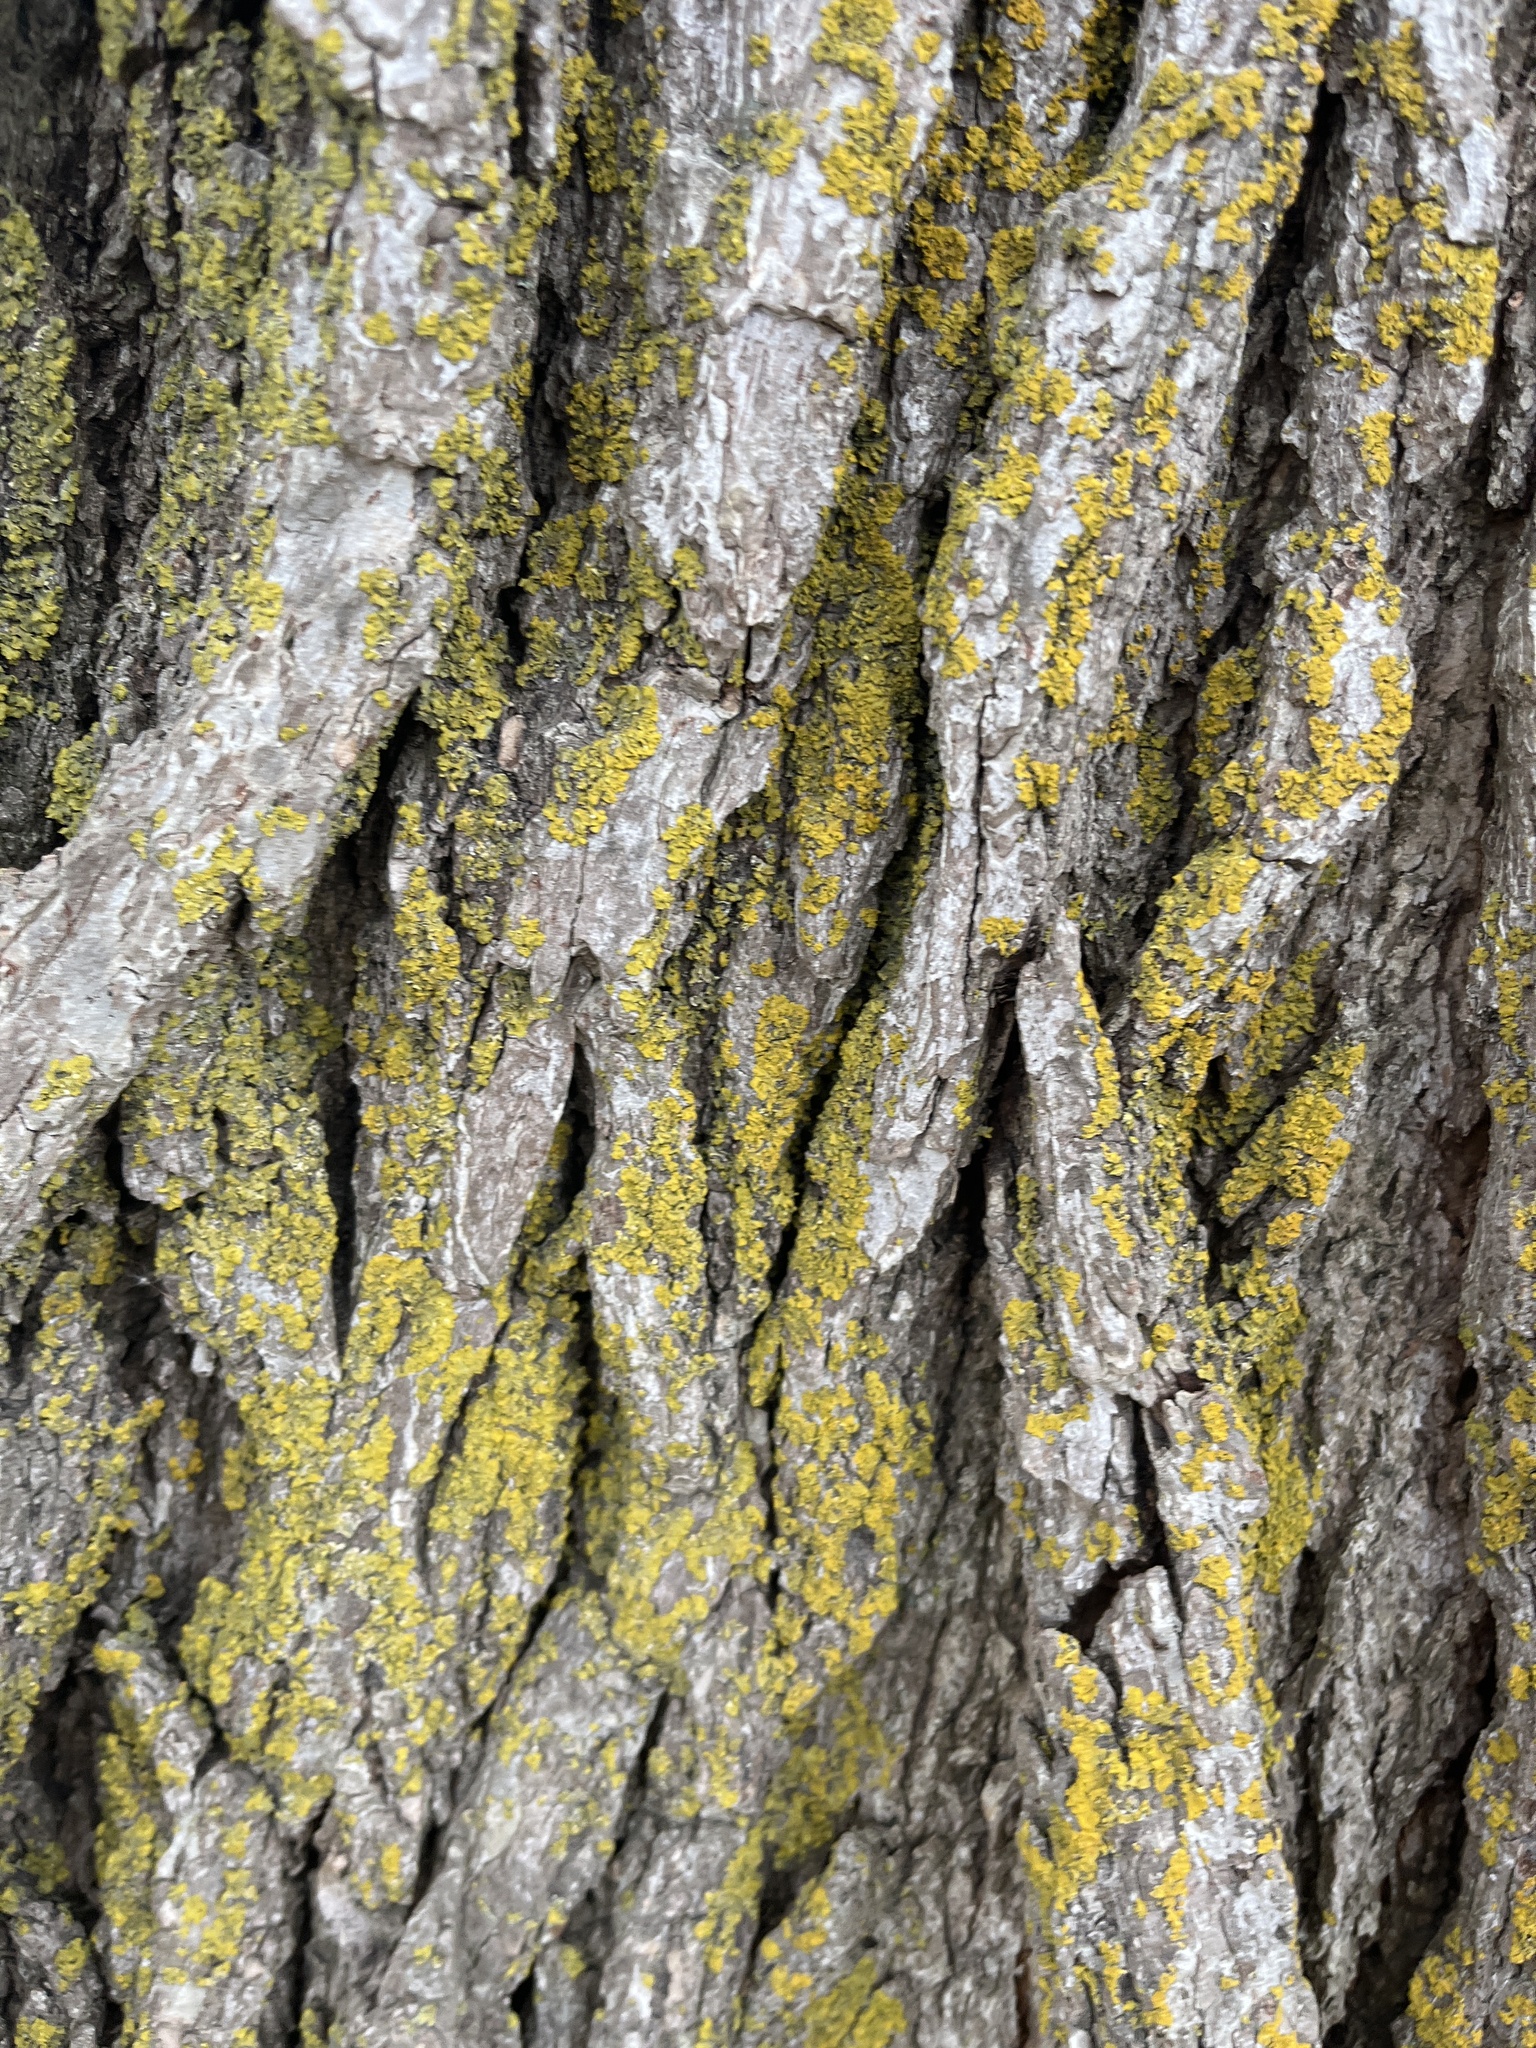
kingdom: Fungi
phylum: Ascomycota
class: Candelariomycetes
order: Candelariales
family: Candelariaceae
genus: Candelaria
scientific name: Candelaria concolor
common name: Candleflame lichen
